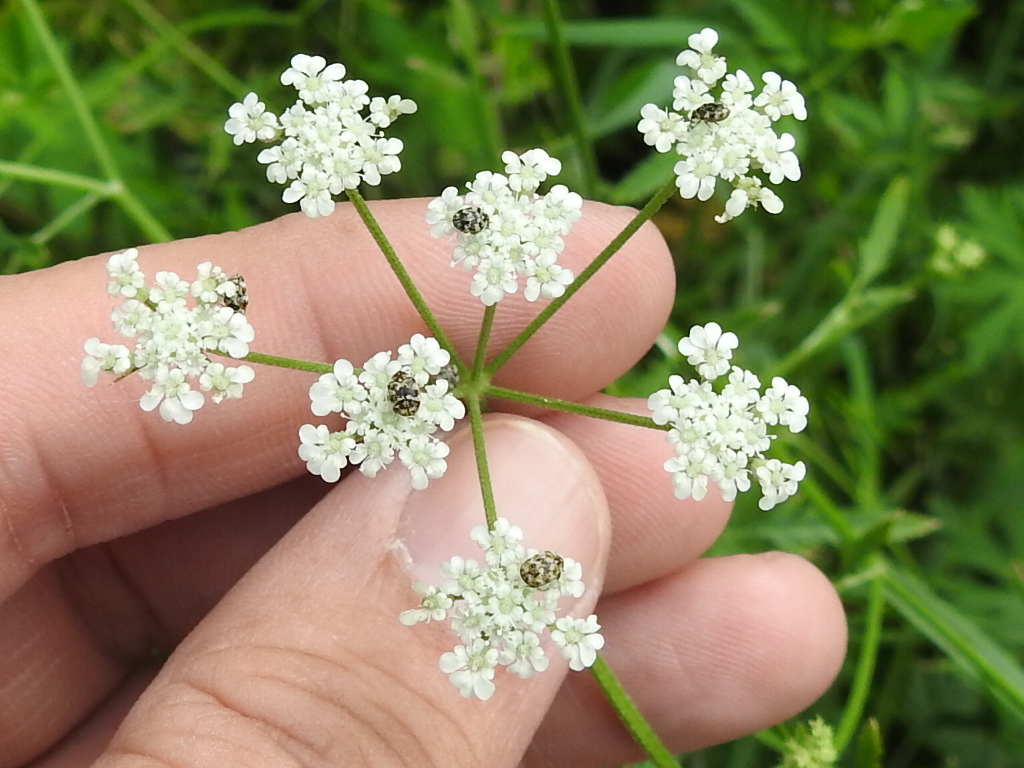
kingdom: Plantae
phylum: Tracheophyta
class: Magnoliopsida
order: Apiales
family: Apiaceae
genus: Torilis
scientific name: Torilis arvensis
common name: Spreading hedge-parsley
